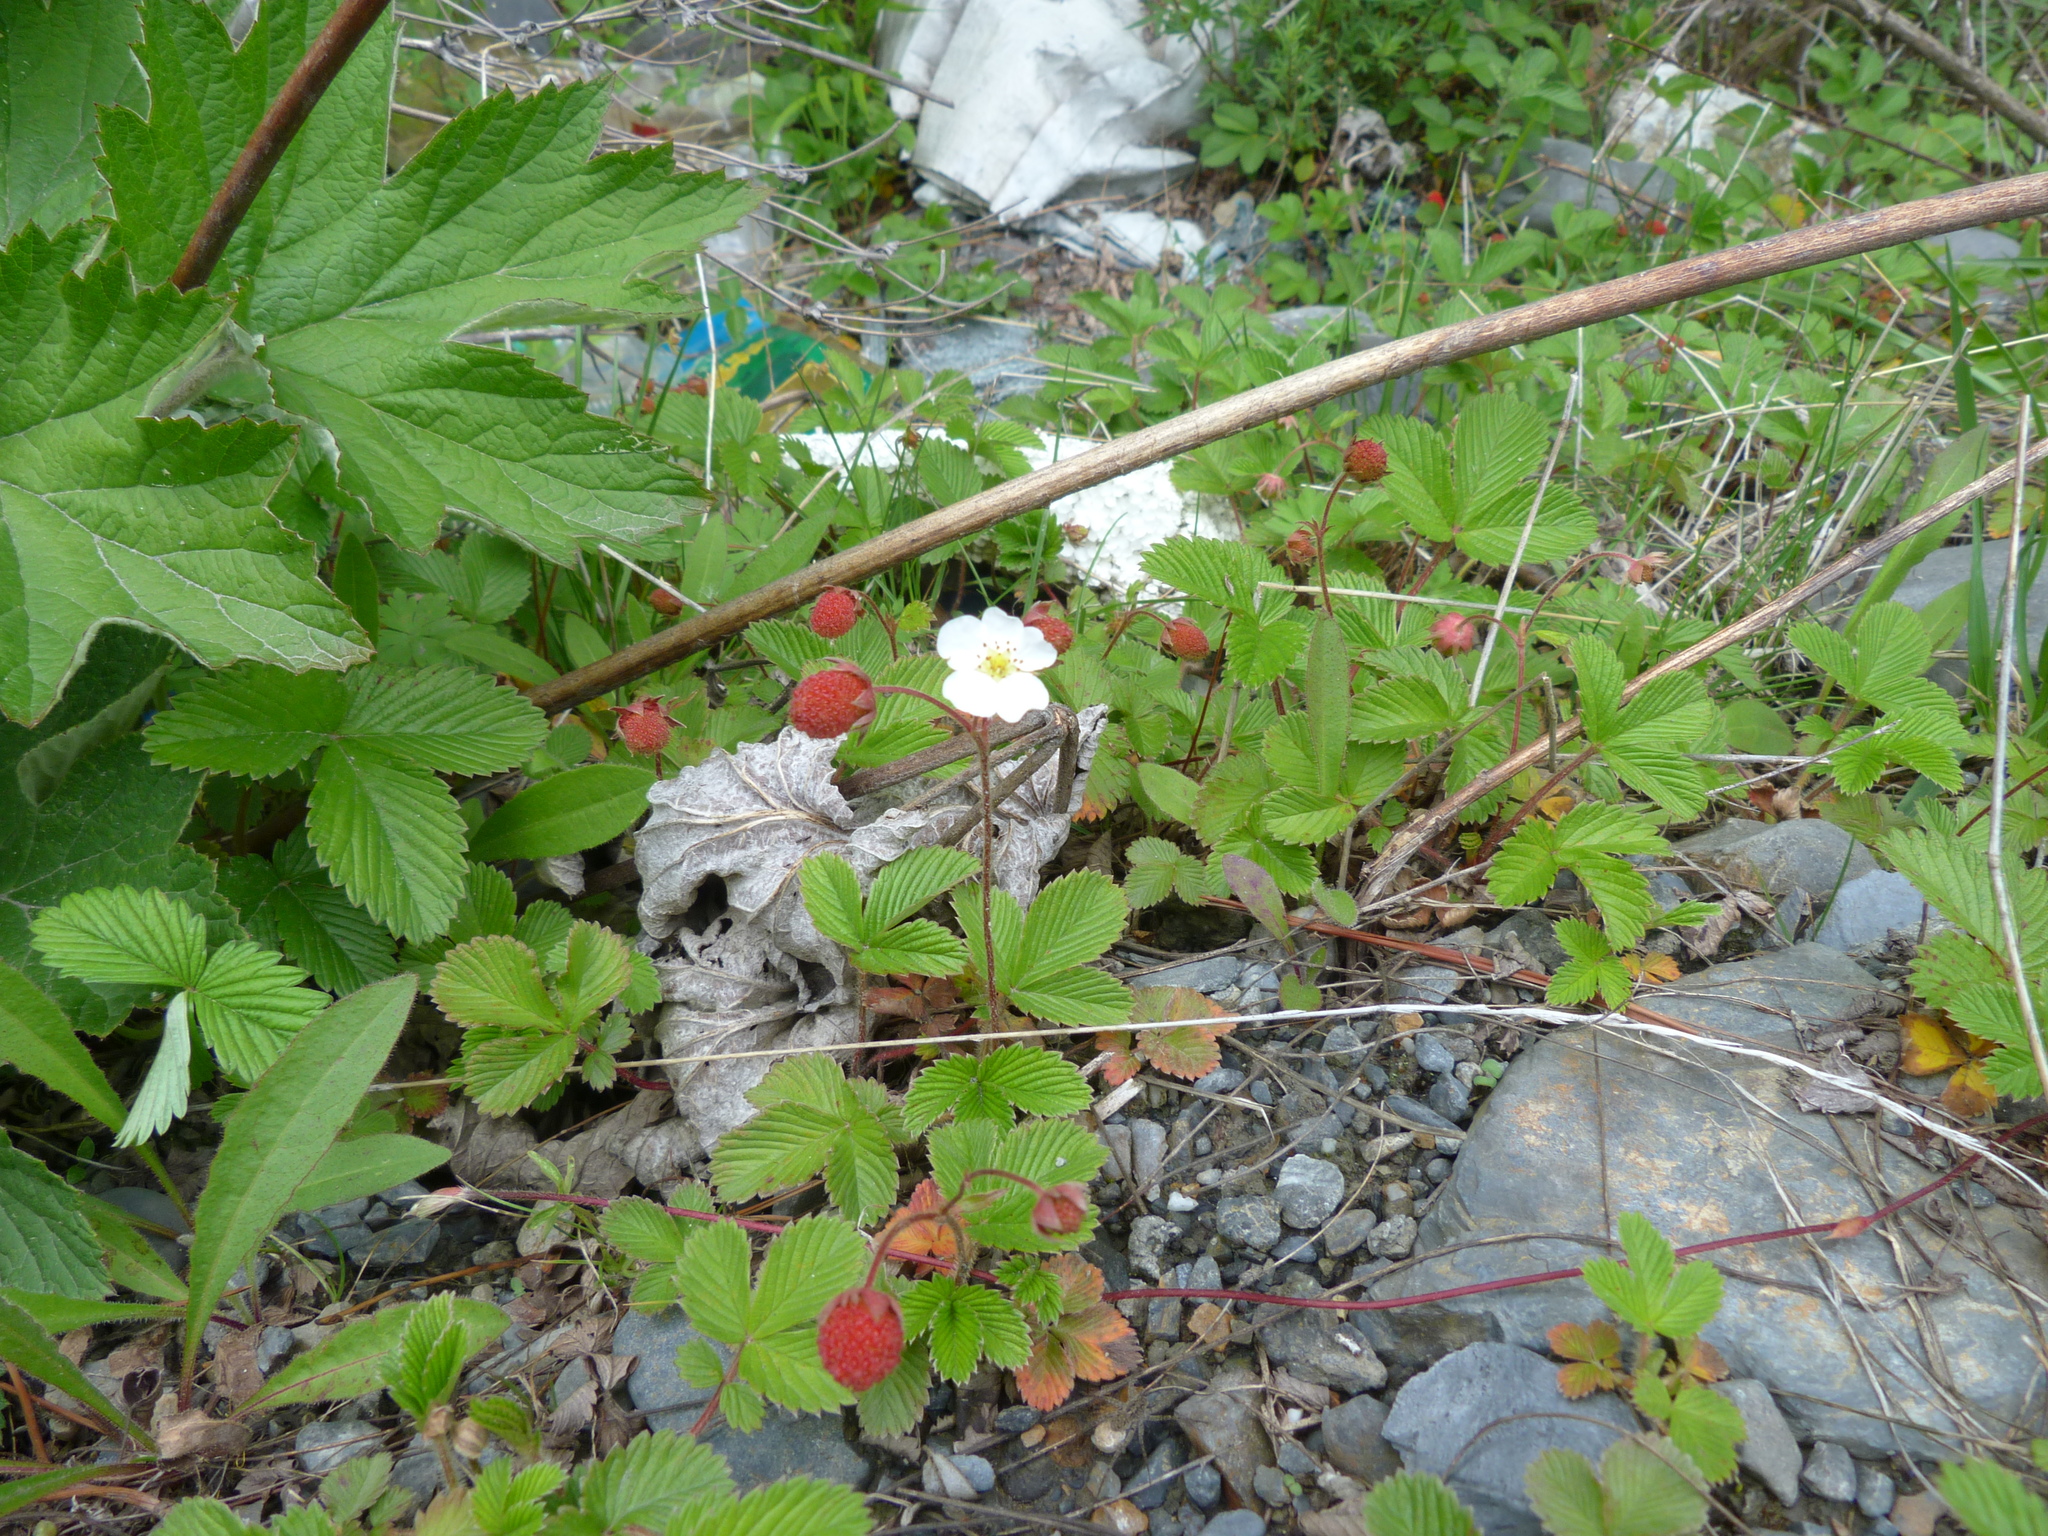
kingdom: Plantae
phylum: Tracheophyta
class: Magnoliopsida
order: Rosales
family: Rosaceae
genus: Fragaria
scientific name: Fragaria moupinensis
